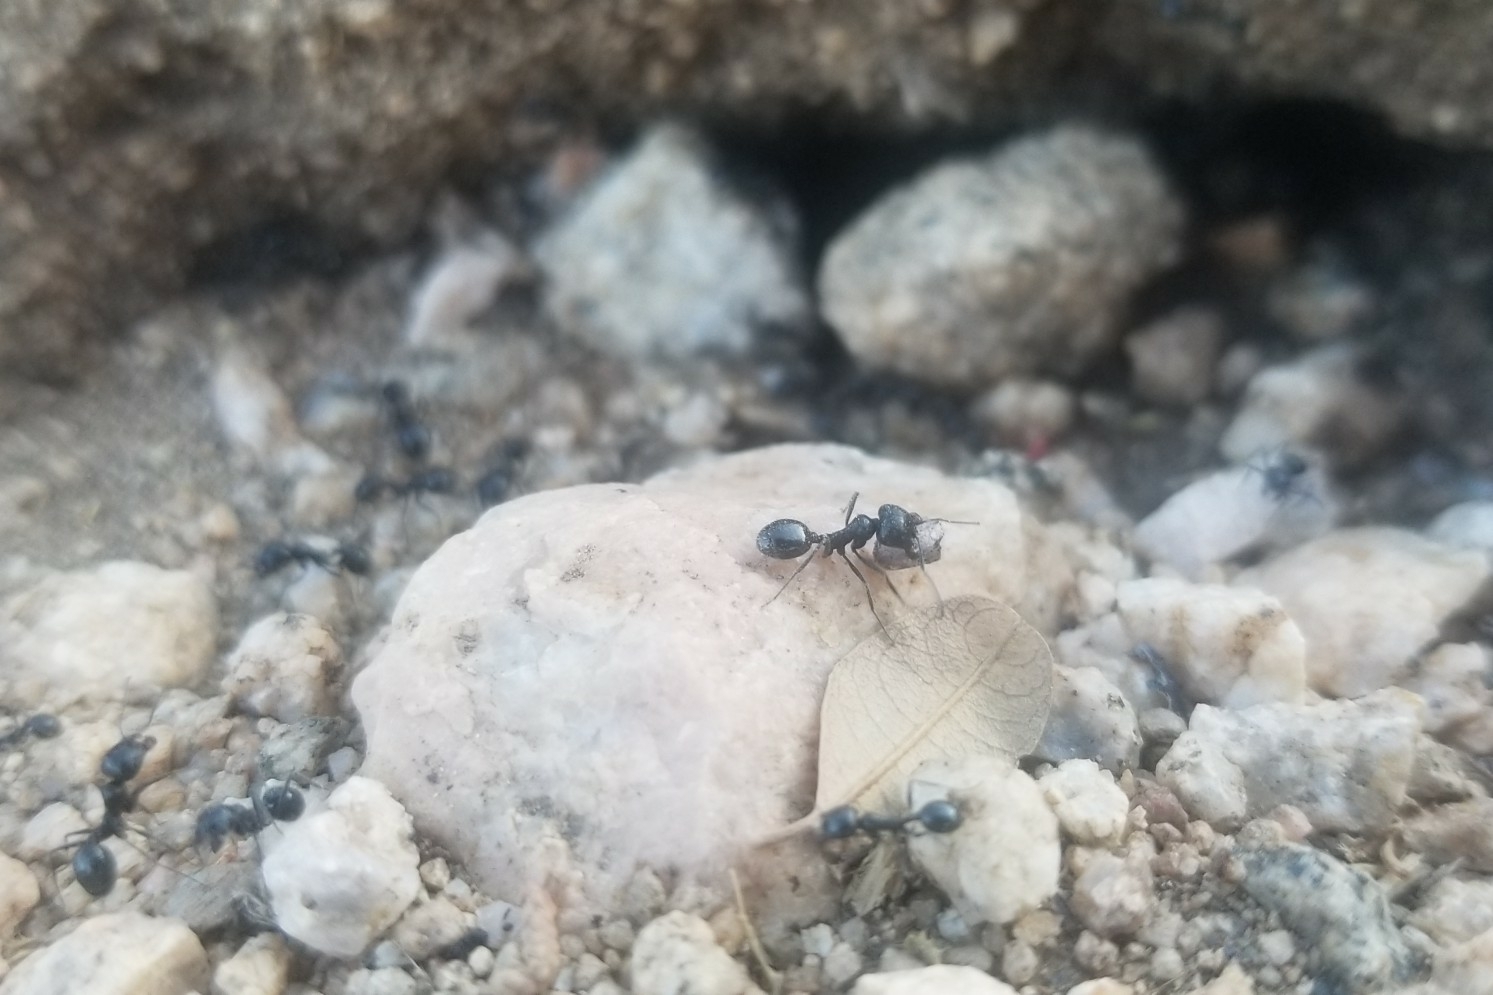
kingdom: Animalia
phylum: Arthropoda
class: Insecta
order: Hymenoptera
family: Formicidae
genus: Messor
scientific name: Messor pergandei
